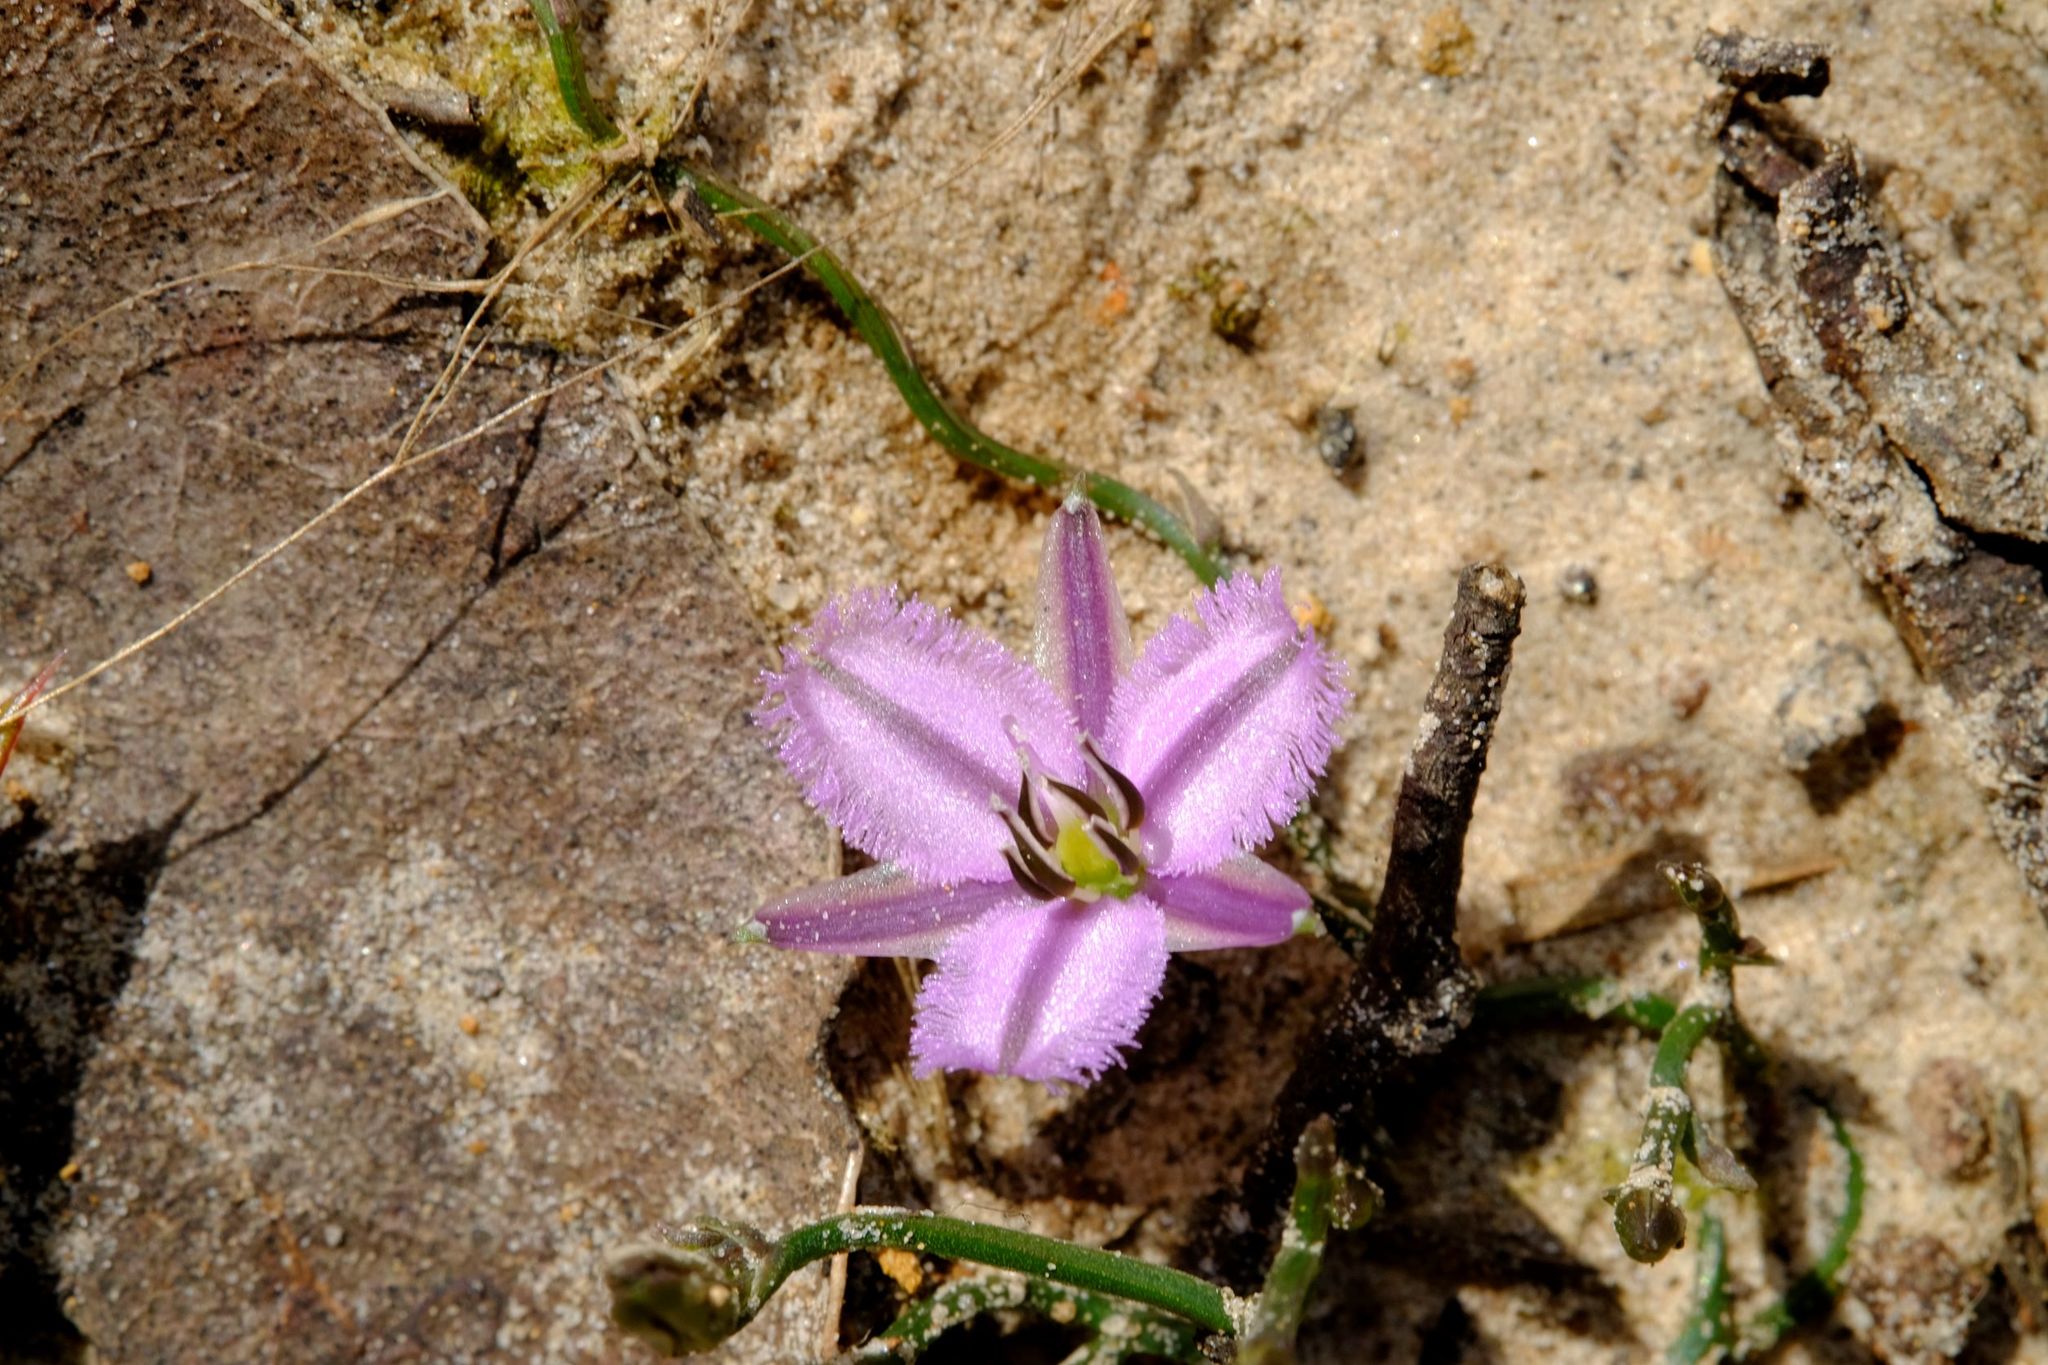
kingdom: Plantae
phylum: Tracheophyta
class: Liliopsida
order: Asparagales
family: Asparagaceae
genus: Thysanotus
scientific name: Thysanotus patersonii
